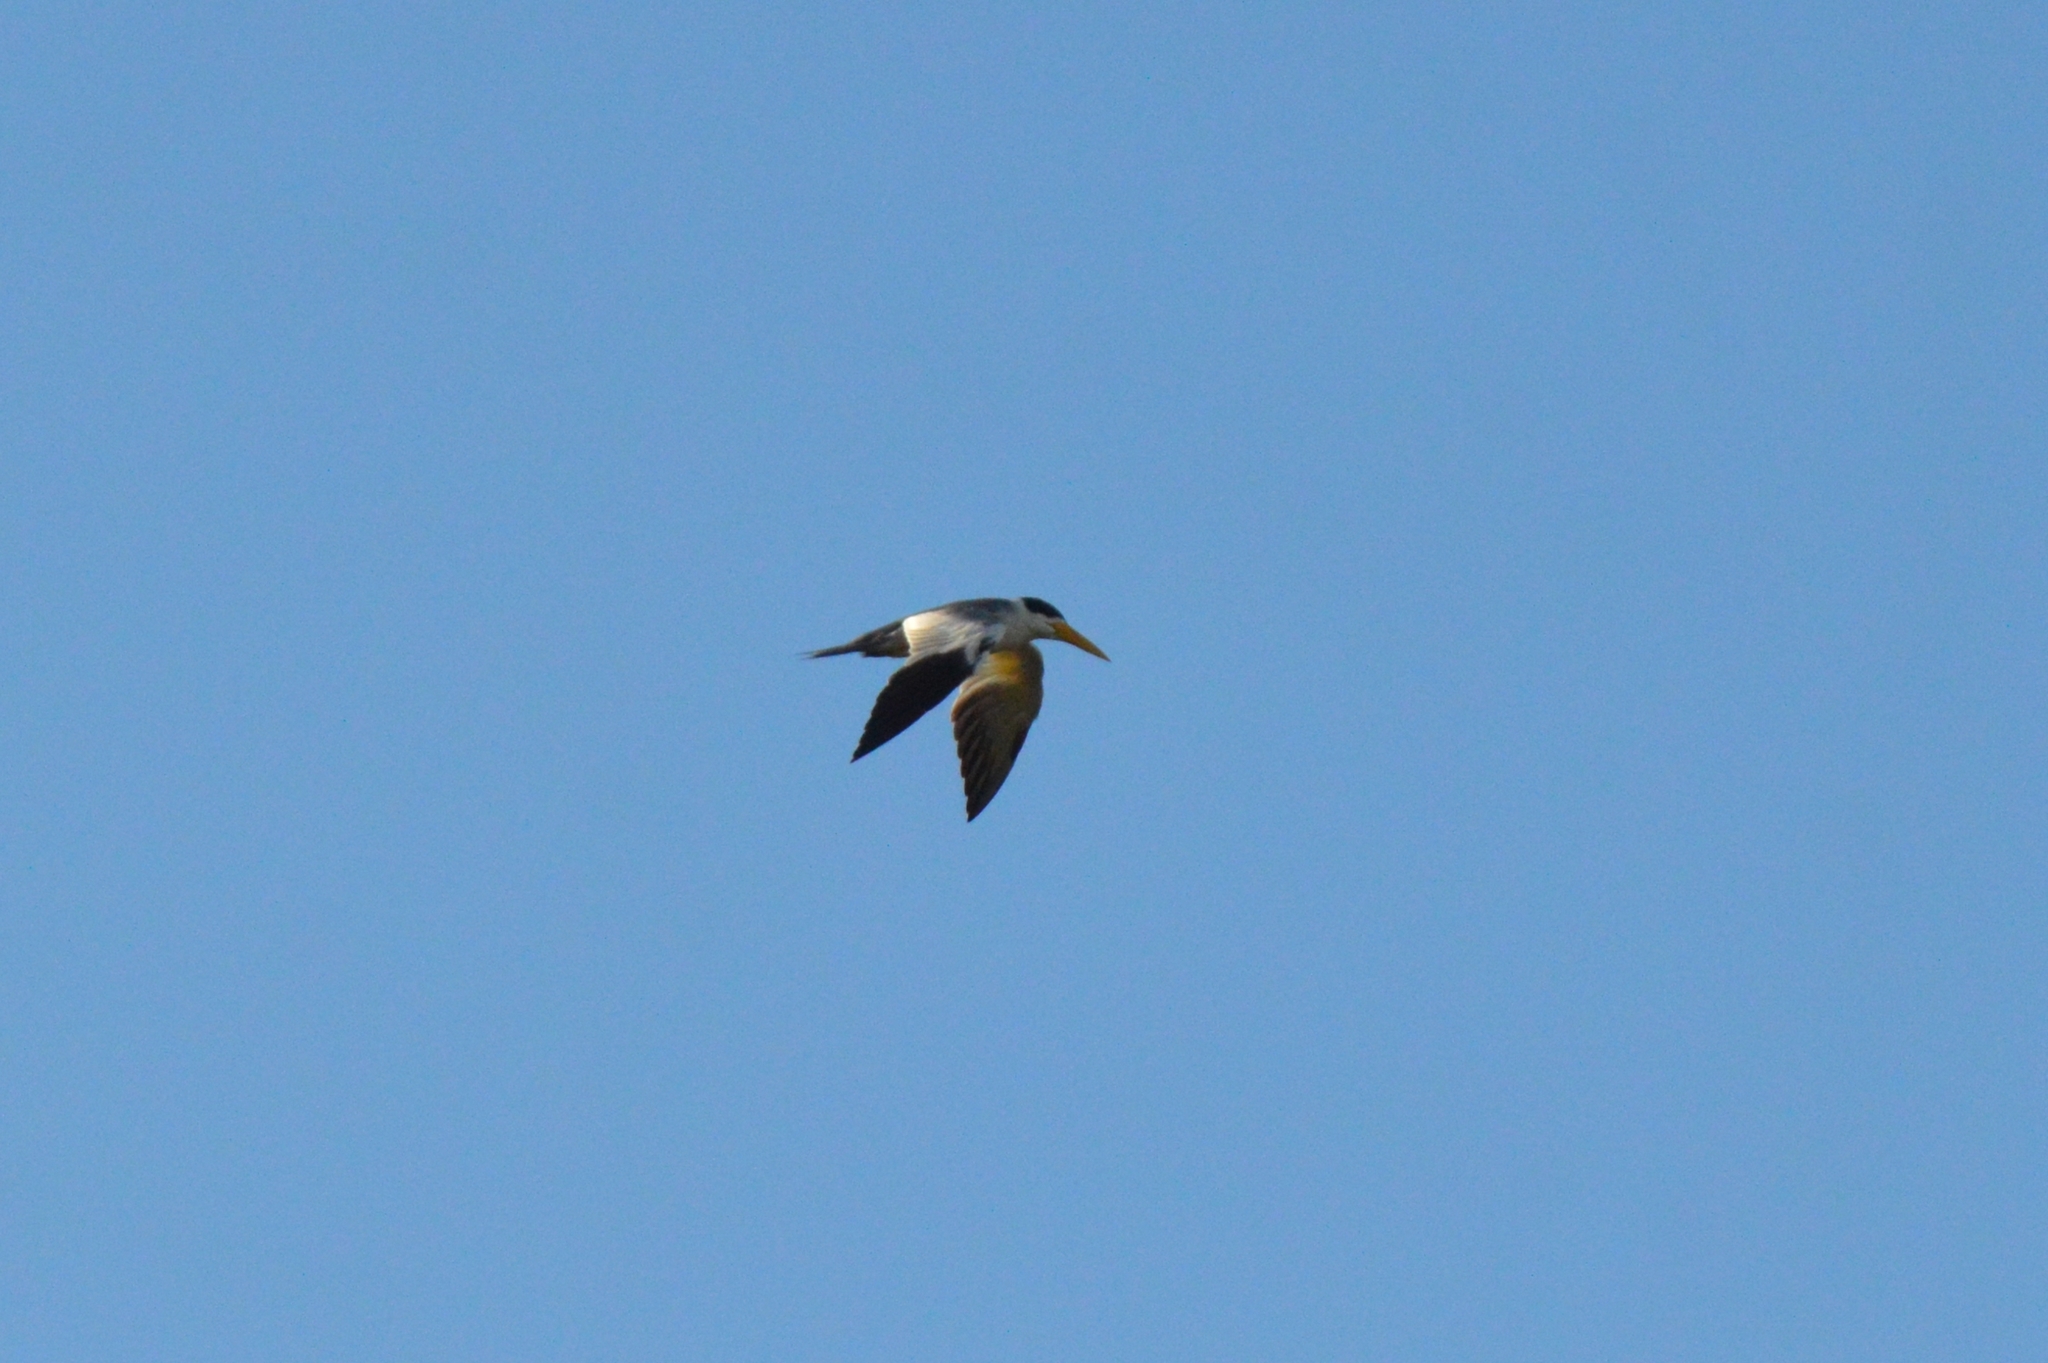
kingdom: Animalia
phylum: Chordata
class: Aves
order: Charadriiformes
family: Laridae
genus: Phaetusa
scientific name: Phaetusa simplex
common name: Large-billed tern
